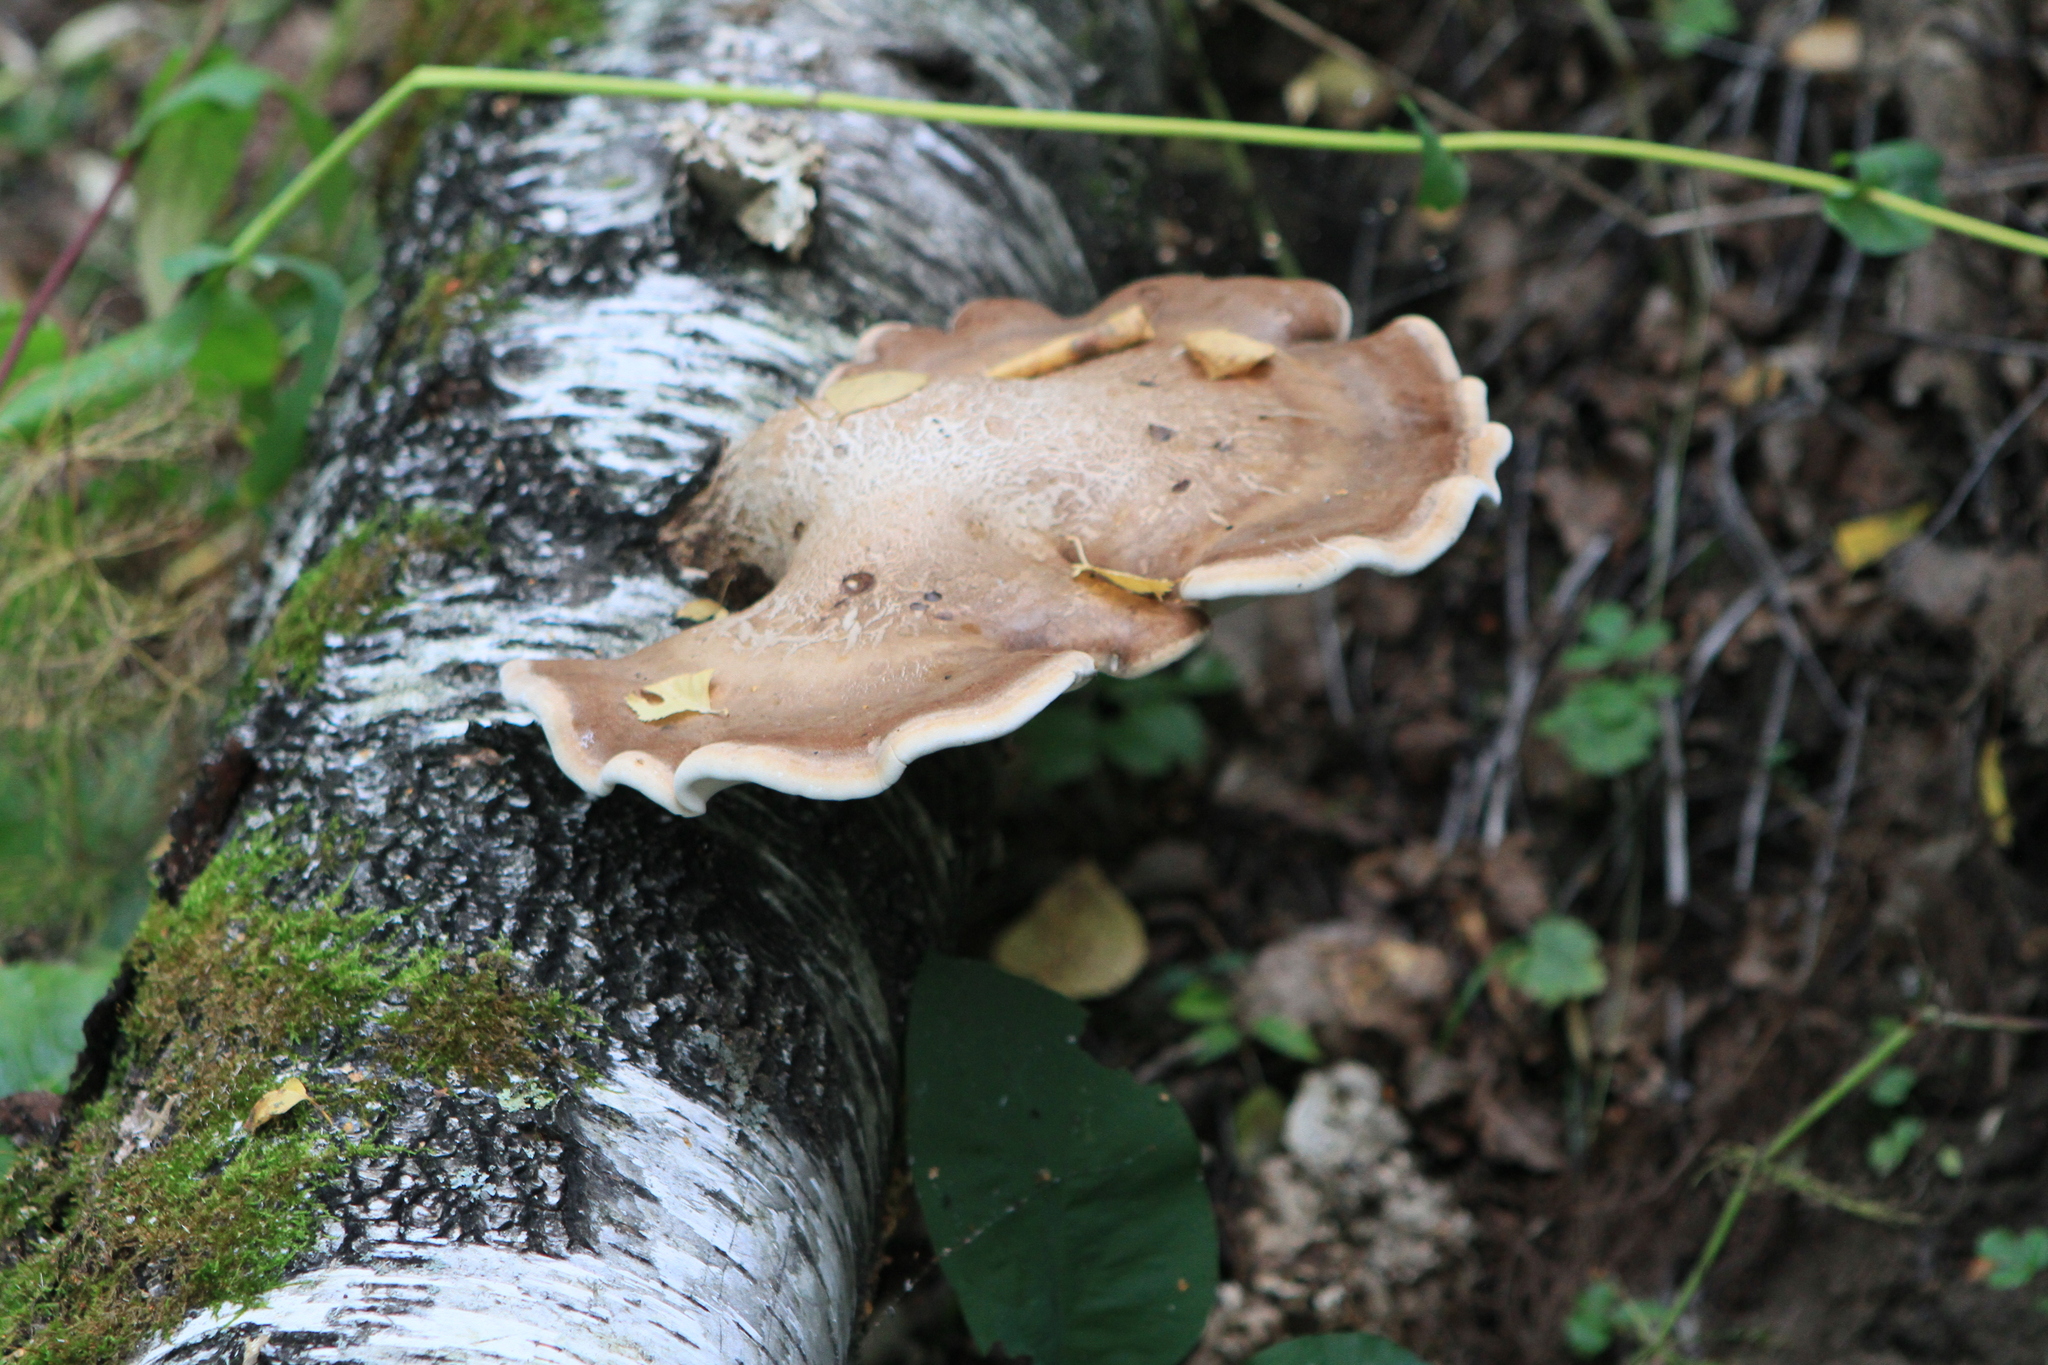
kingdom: Fungi
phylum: Basidiomycota
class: Agaricomycetes
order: Polyporales
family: Fomitopsidaceae
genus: Fomitopsis
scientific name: Fomitopsis betulina
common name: Birch polypore
